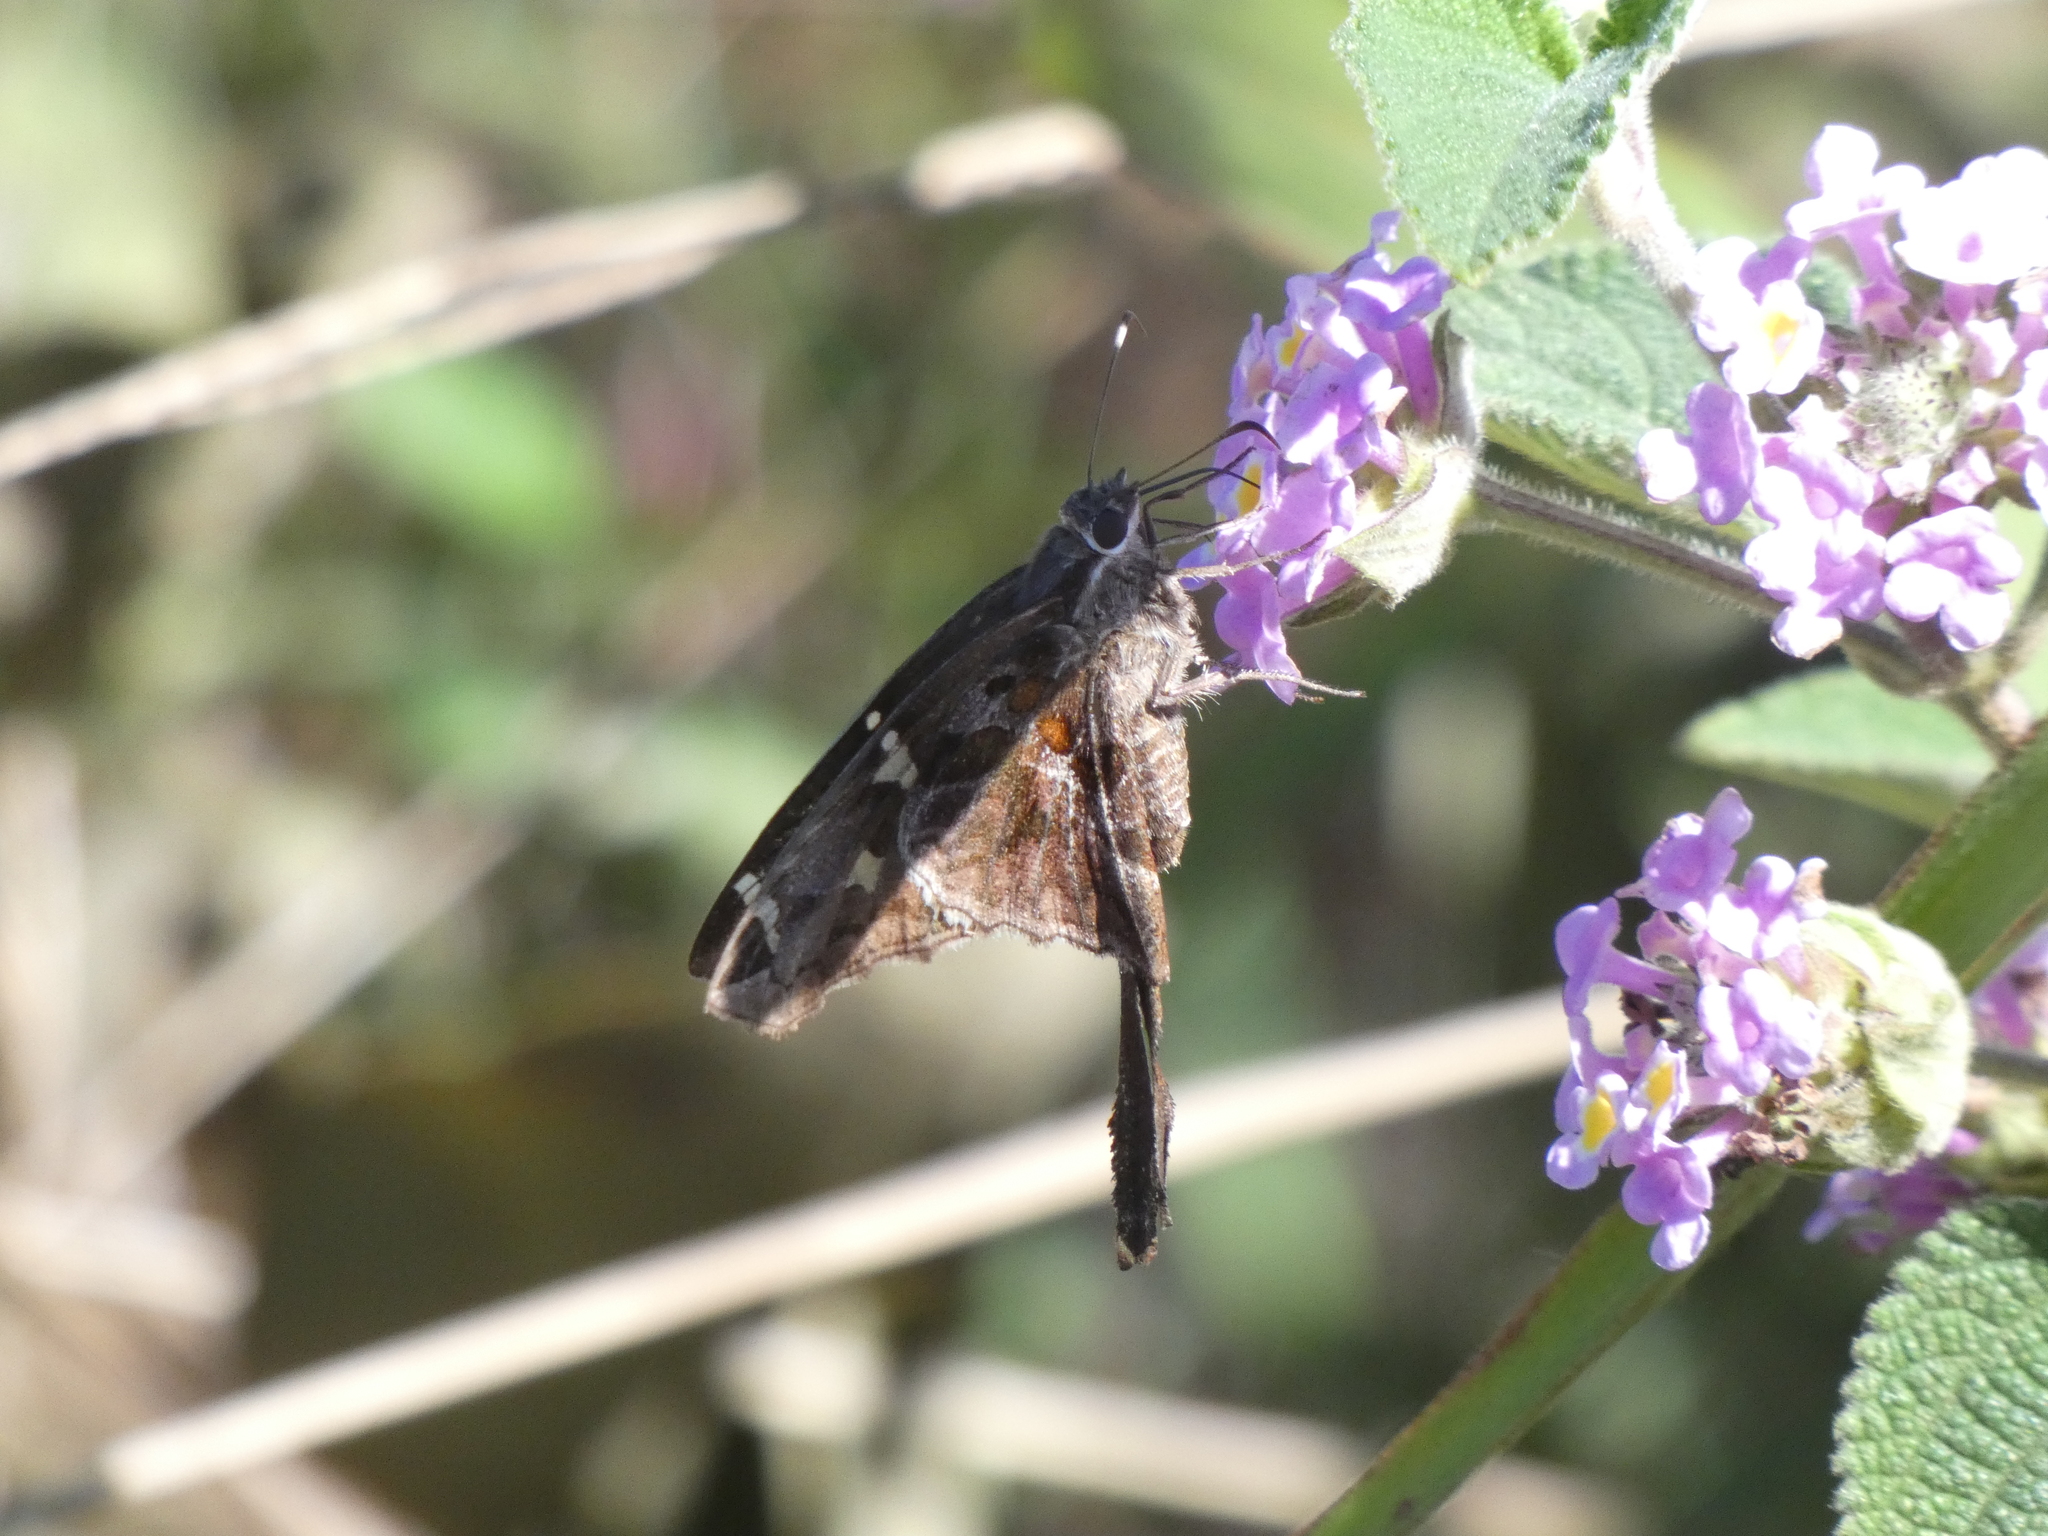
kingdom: Animalia
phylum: Arthropoda
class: Insecta
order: Lepidoptera
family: Hesperiidae
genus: Chioides
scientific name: Chioides catillus
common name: Silverbanded skipper
